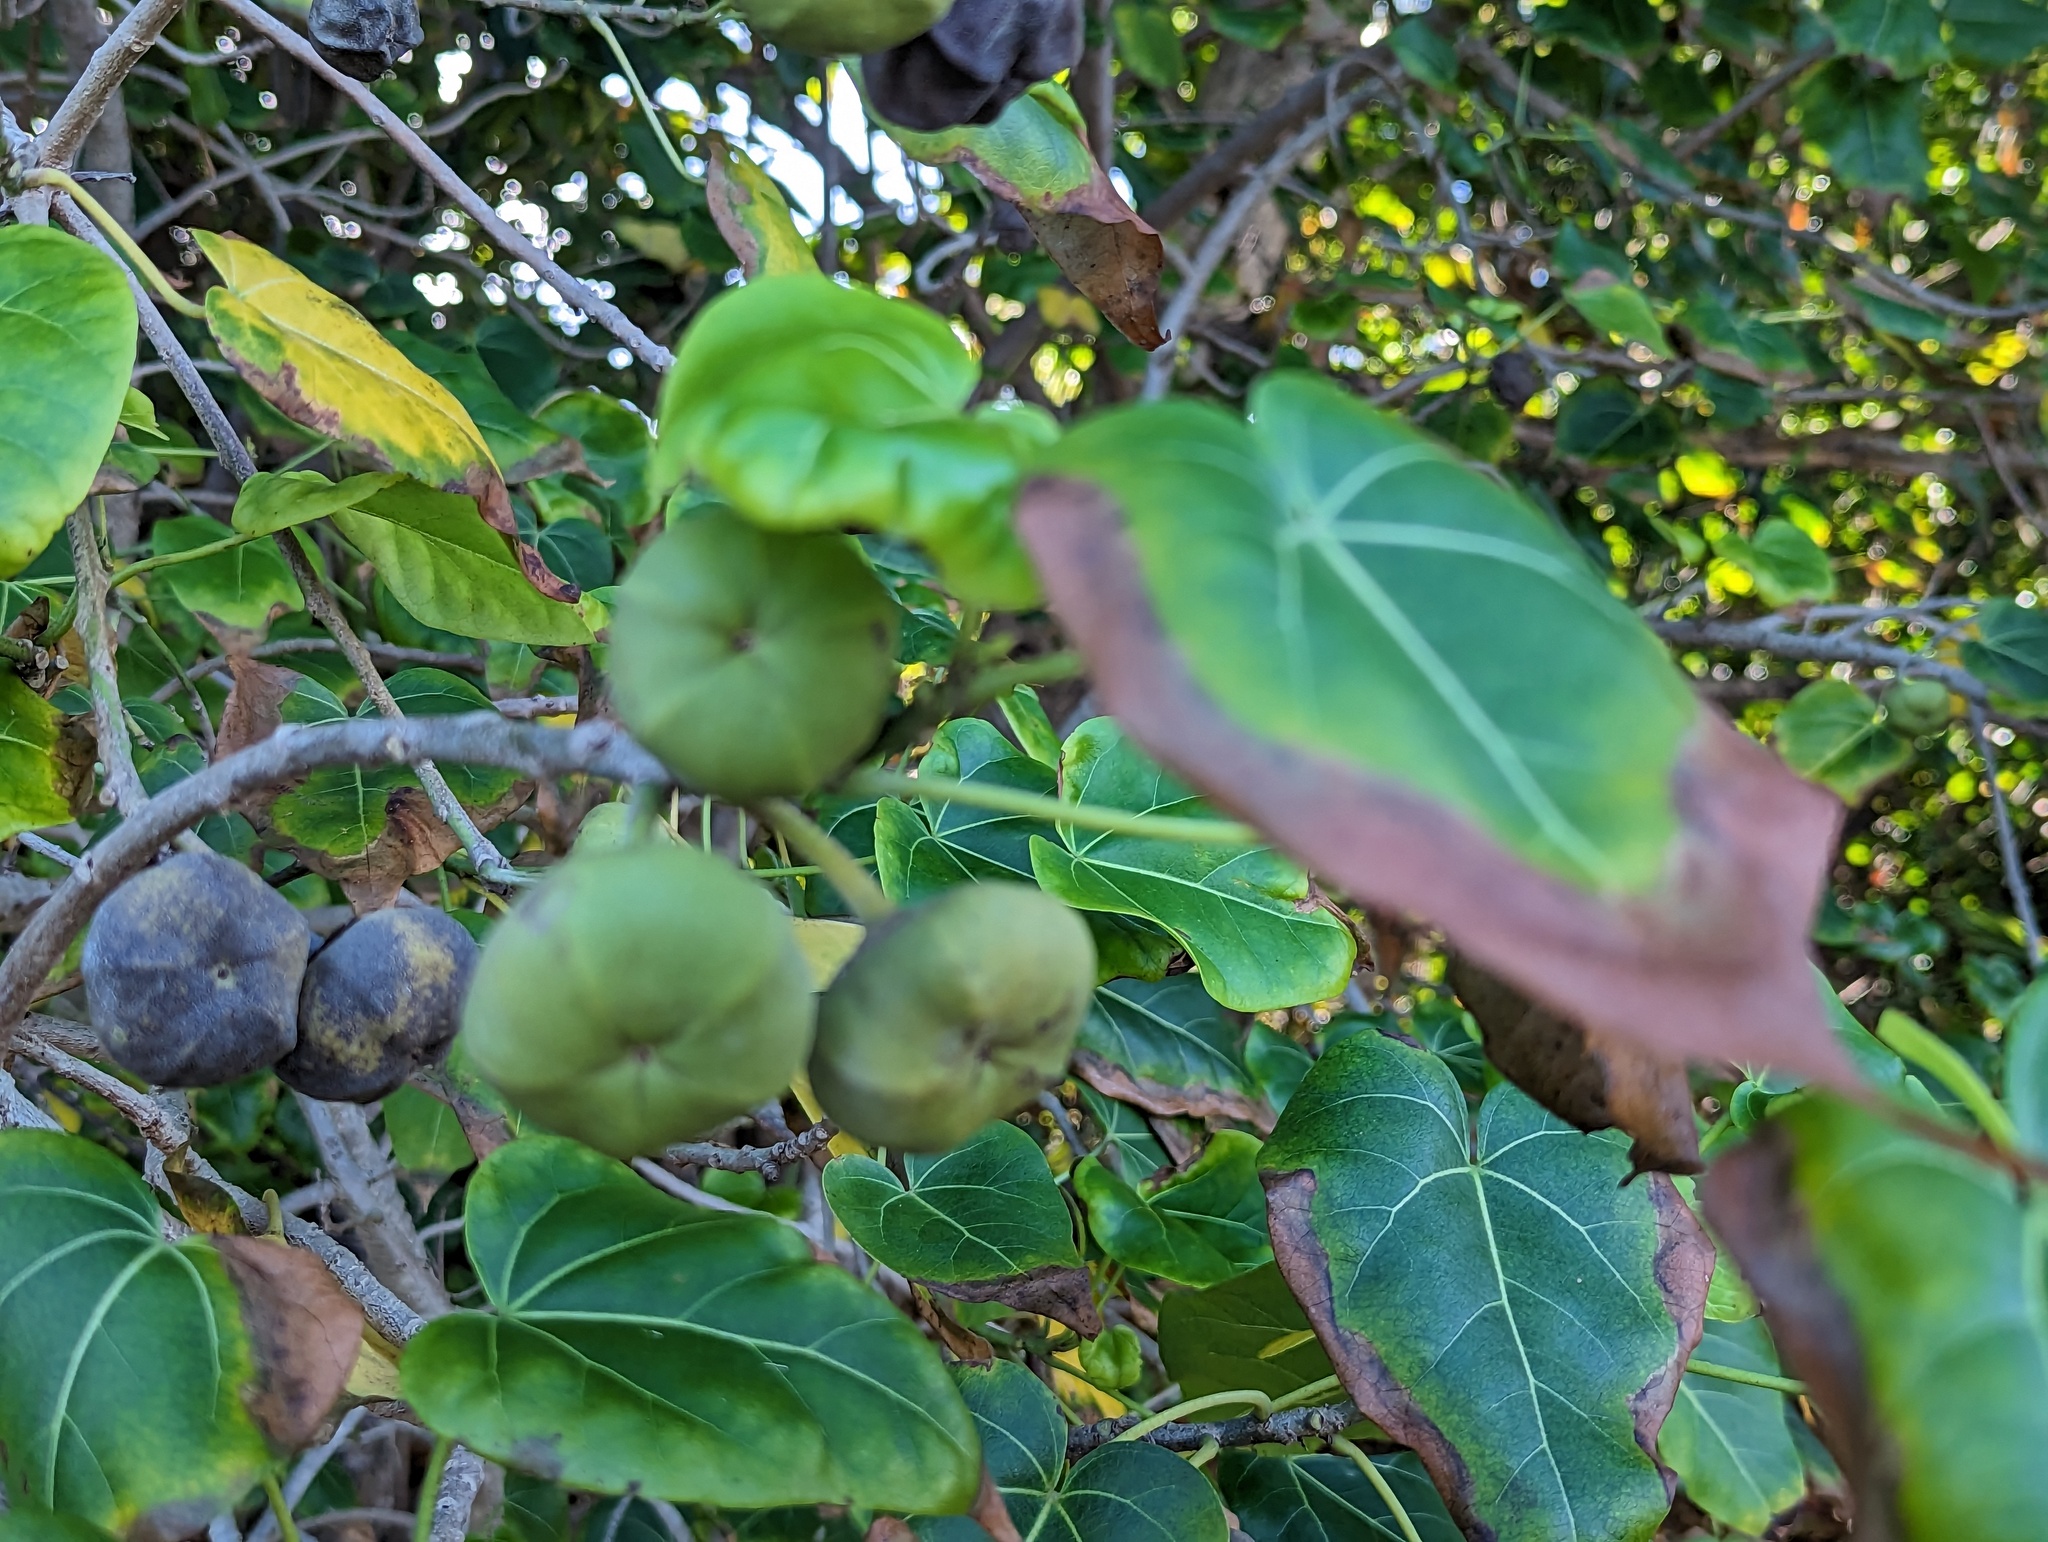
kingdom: Plantae
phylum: Tracheophyta
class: Magnoliopsida
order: Malvales
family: Malvaceae
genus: Thespesia
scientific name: Thespesia populnea
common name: Seaside mahoe
